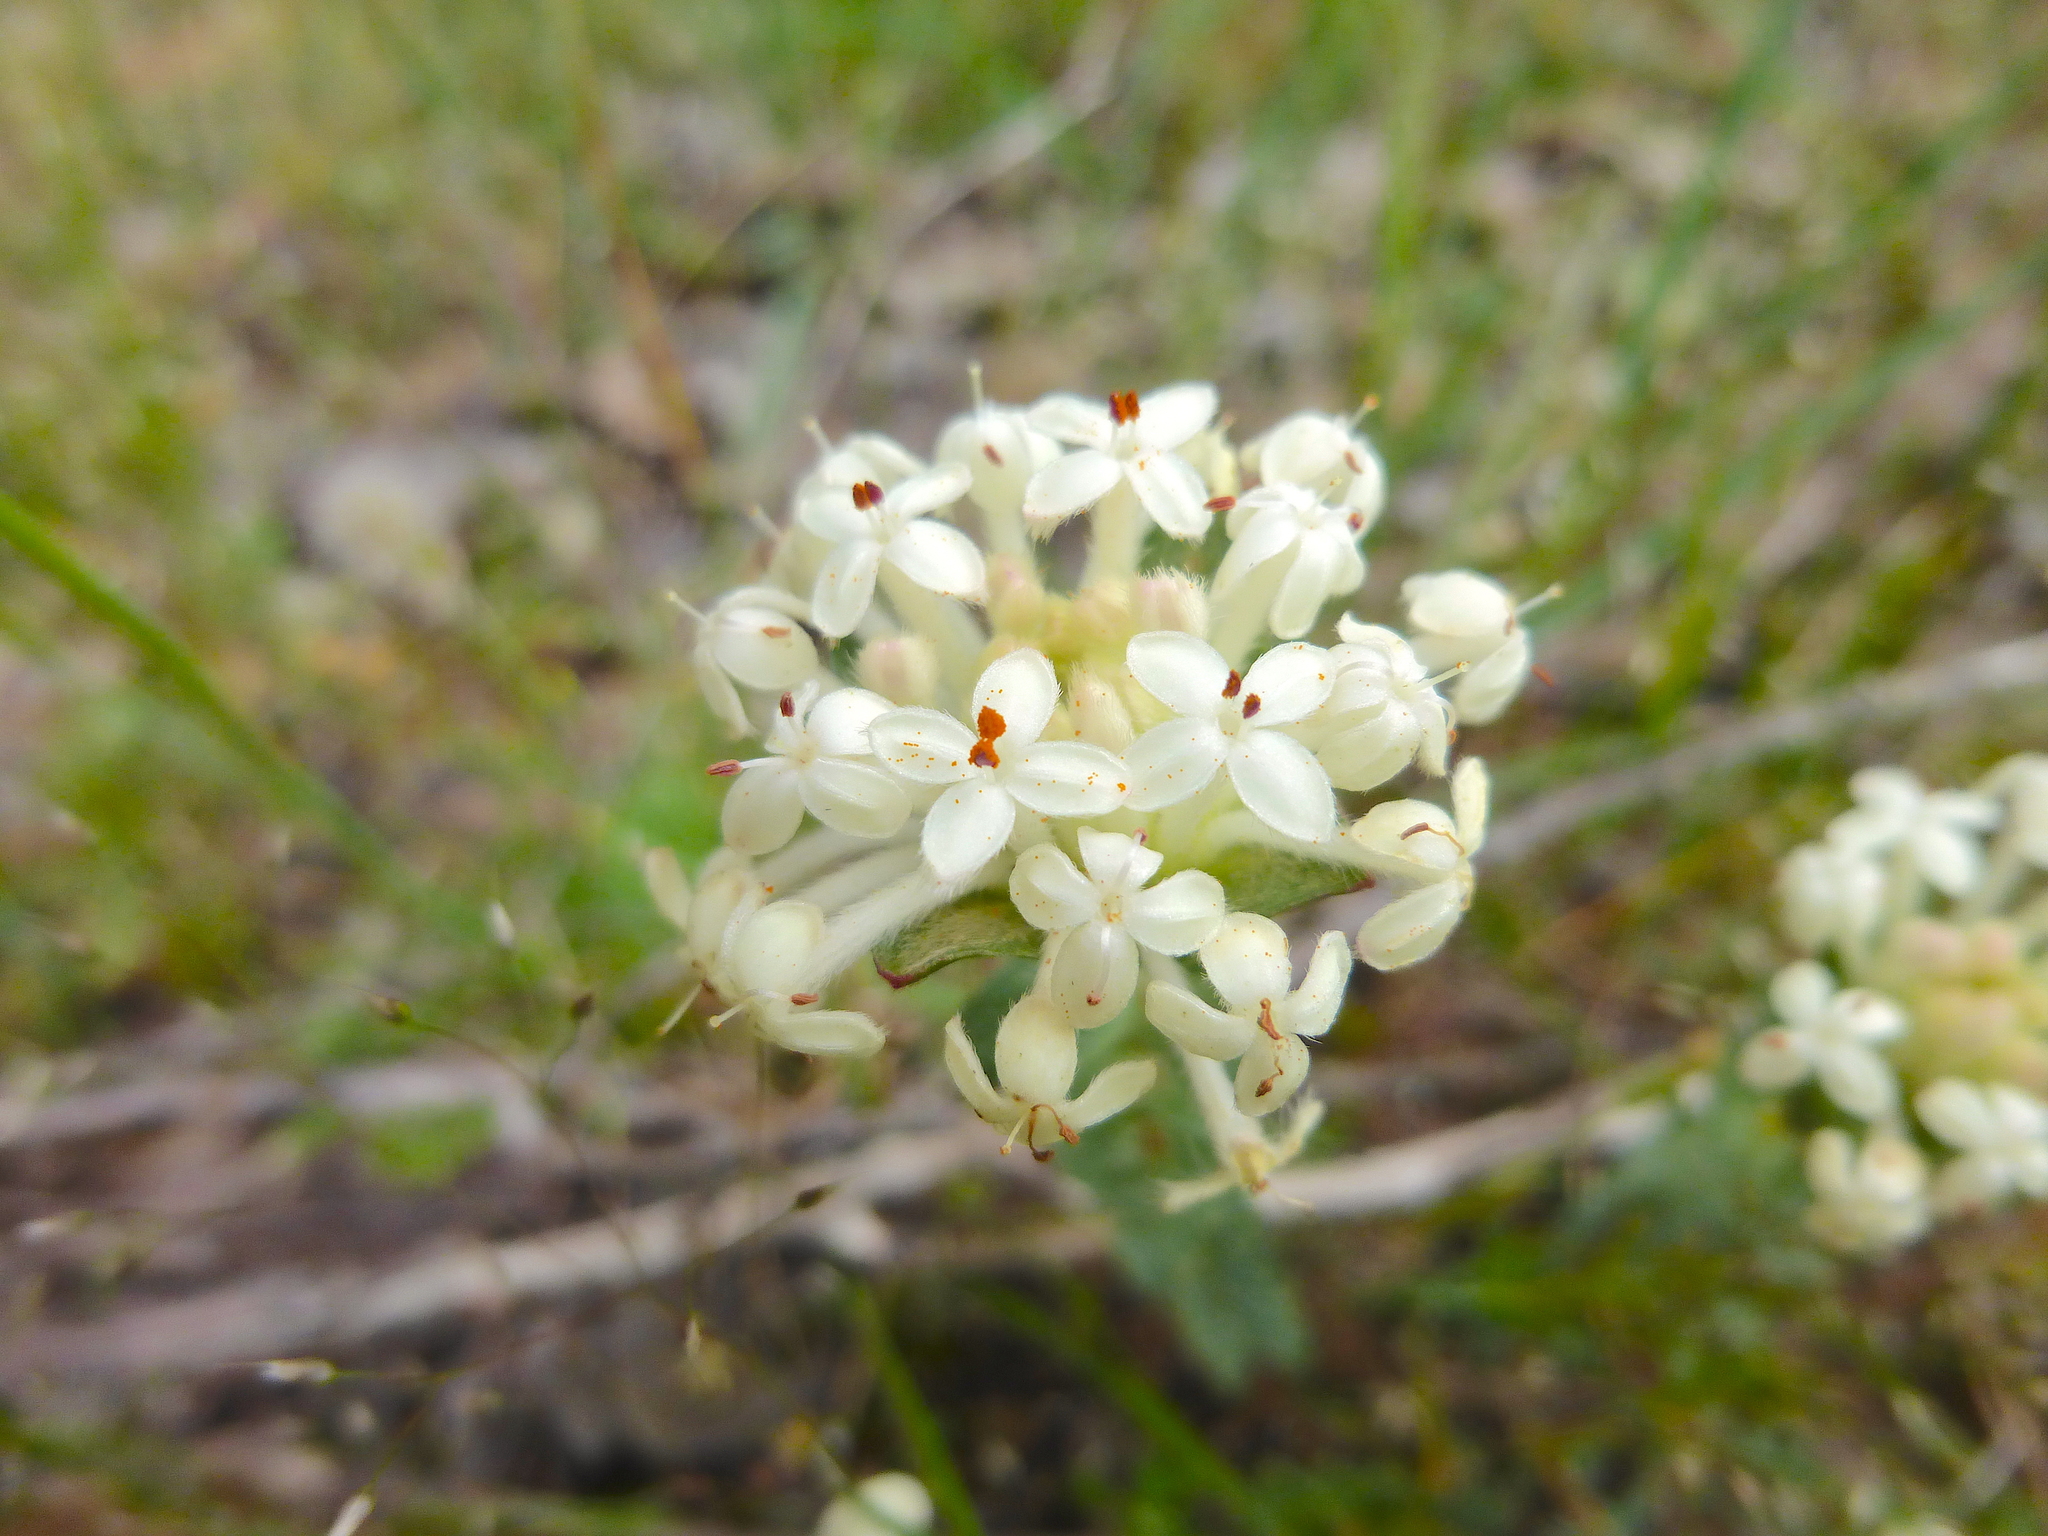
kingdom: Plantae
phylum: Tracheophyta
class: Magnoliopsida
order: Malvales
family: Thymelaeaceae
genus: Pimelea
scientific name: Pimelea humilis
